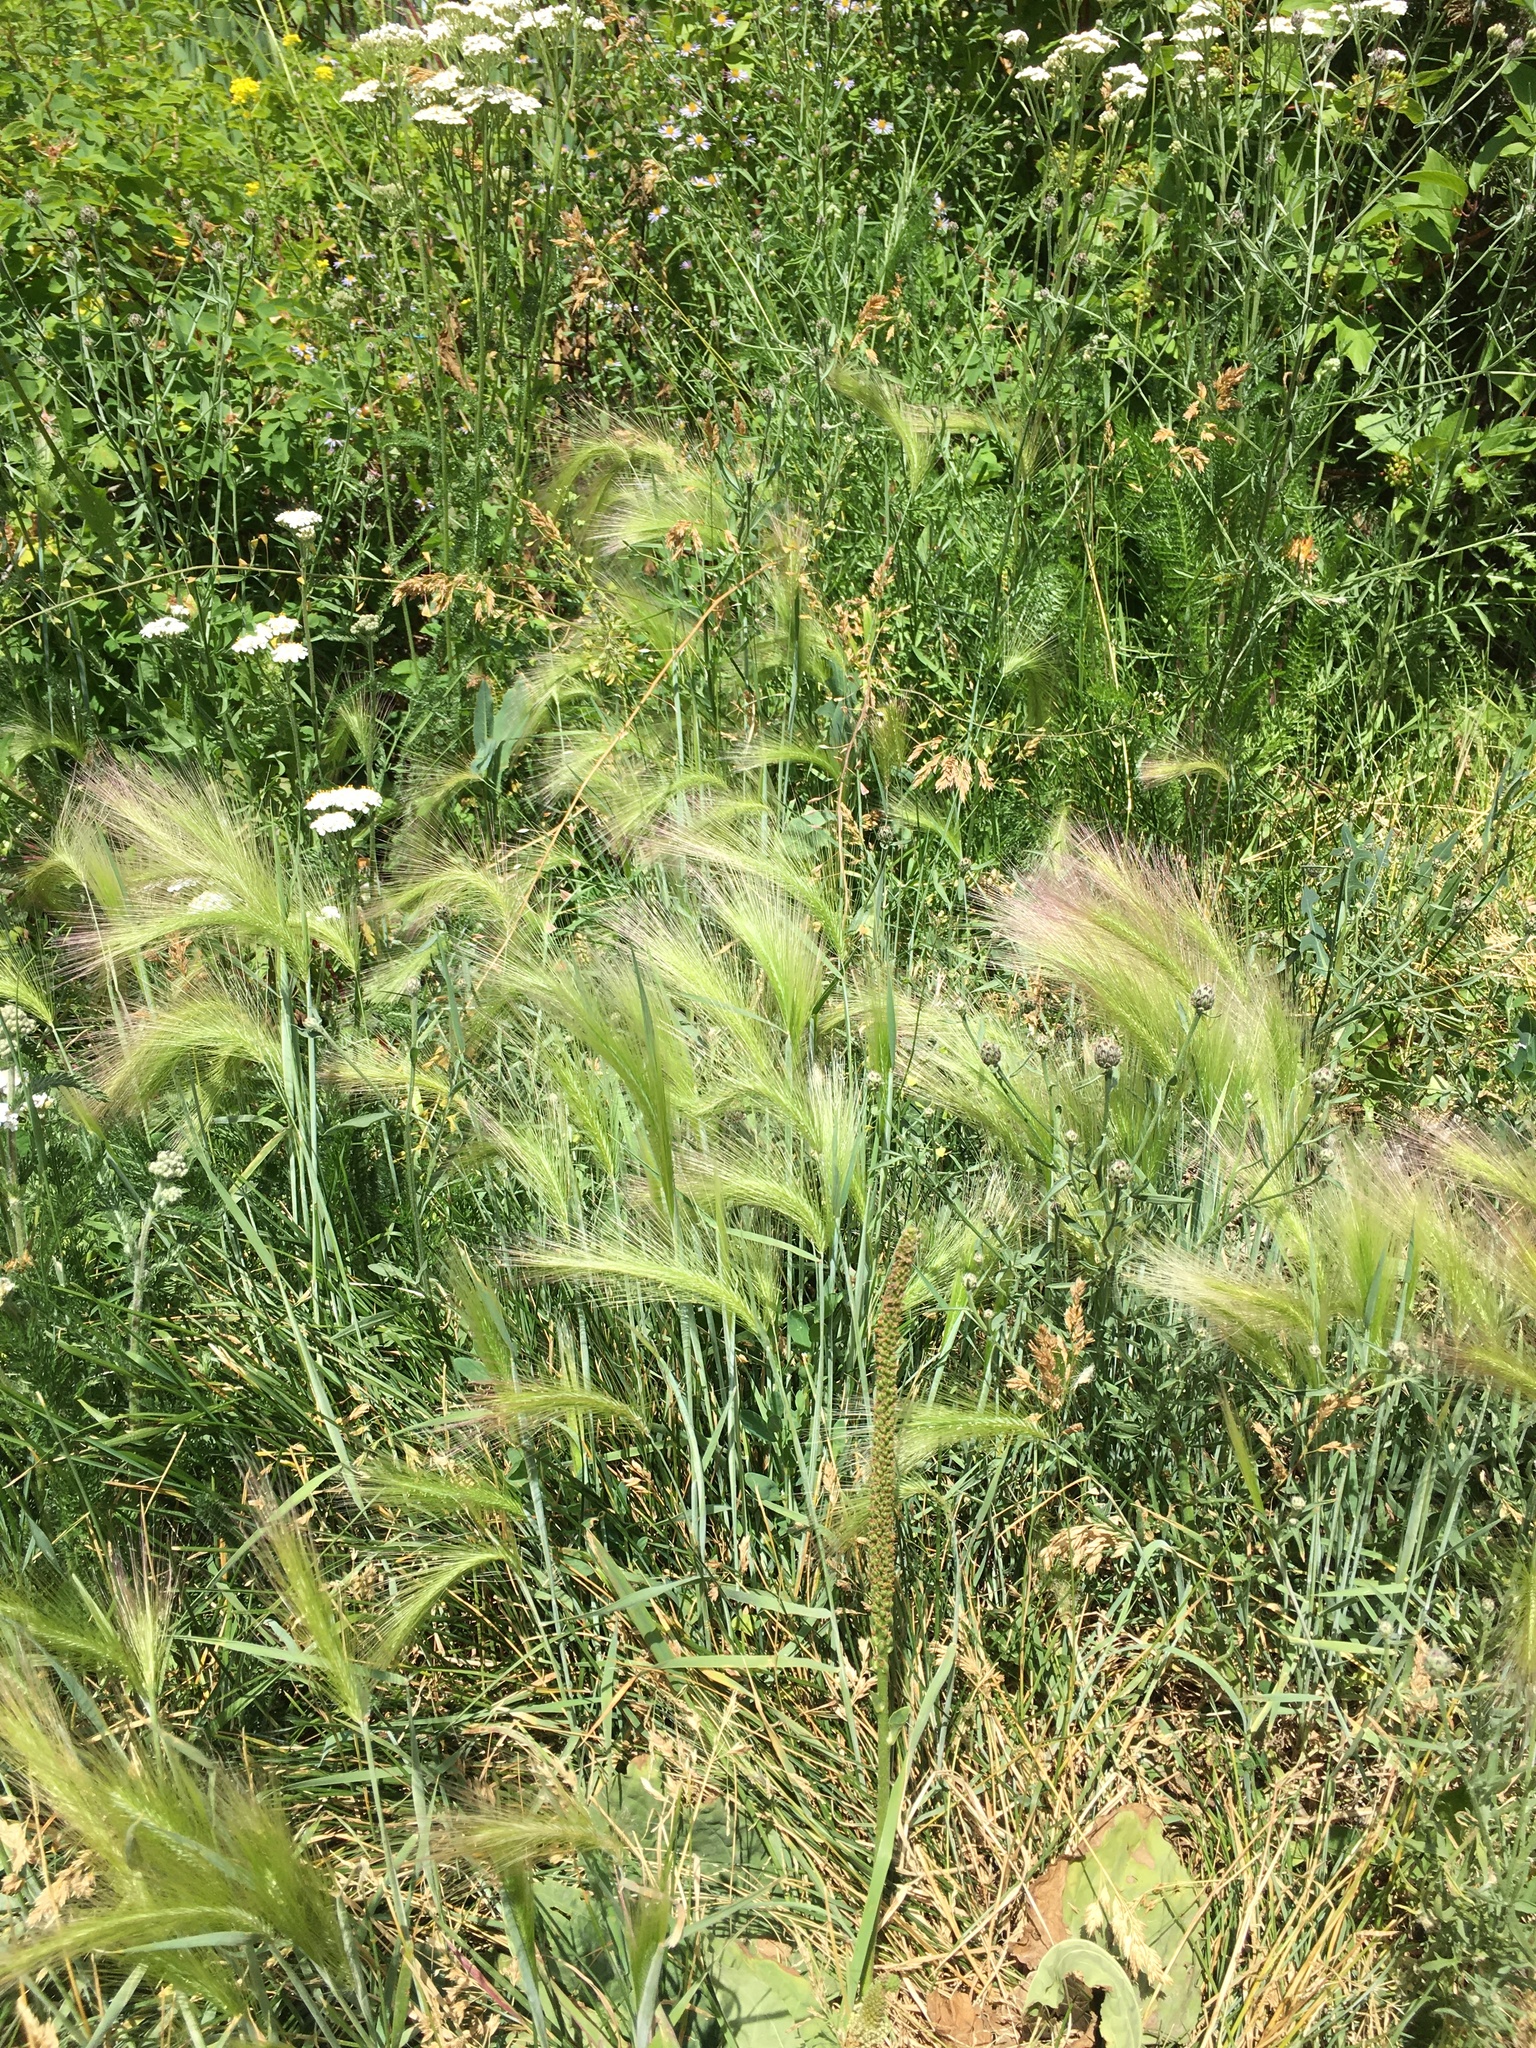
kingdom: Plantae
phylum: Tracheophyta
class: Liliopsida
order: Poales
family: Poaceae
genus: Hordeum
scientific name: Hordeum jubatum
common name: Foxtail barley
